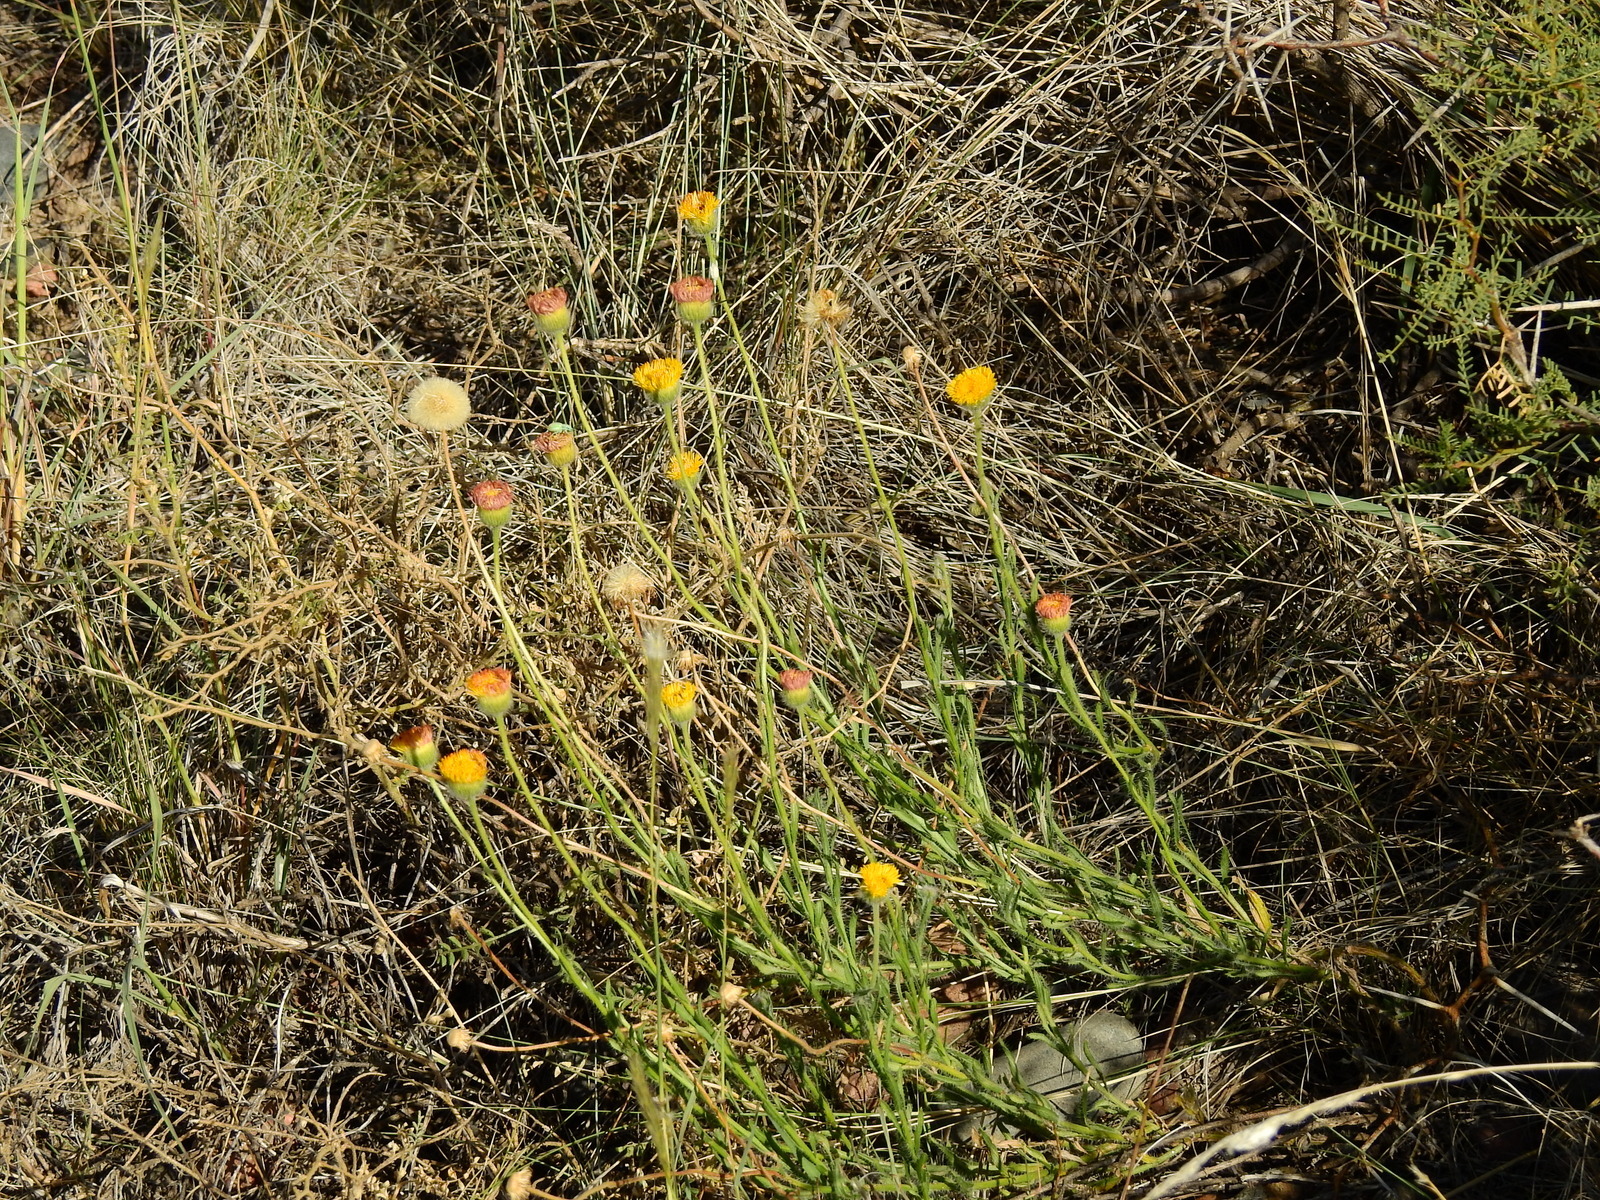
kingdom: Plantae
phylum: Tracheophyta
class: Magnoliopsida
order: Asterales
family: Asteraceae
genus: Hysterionica
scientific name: Hysterionica jasionoides
